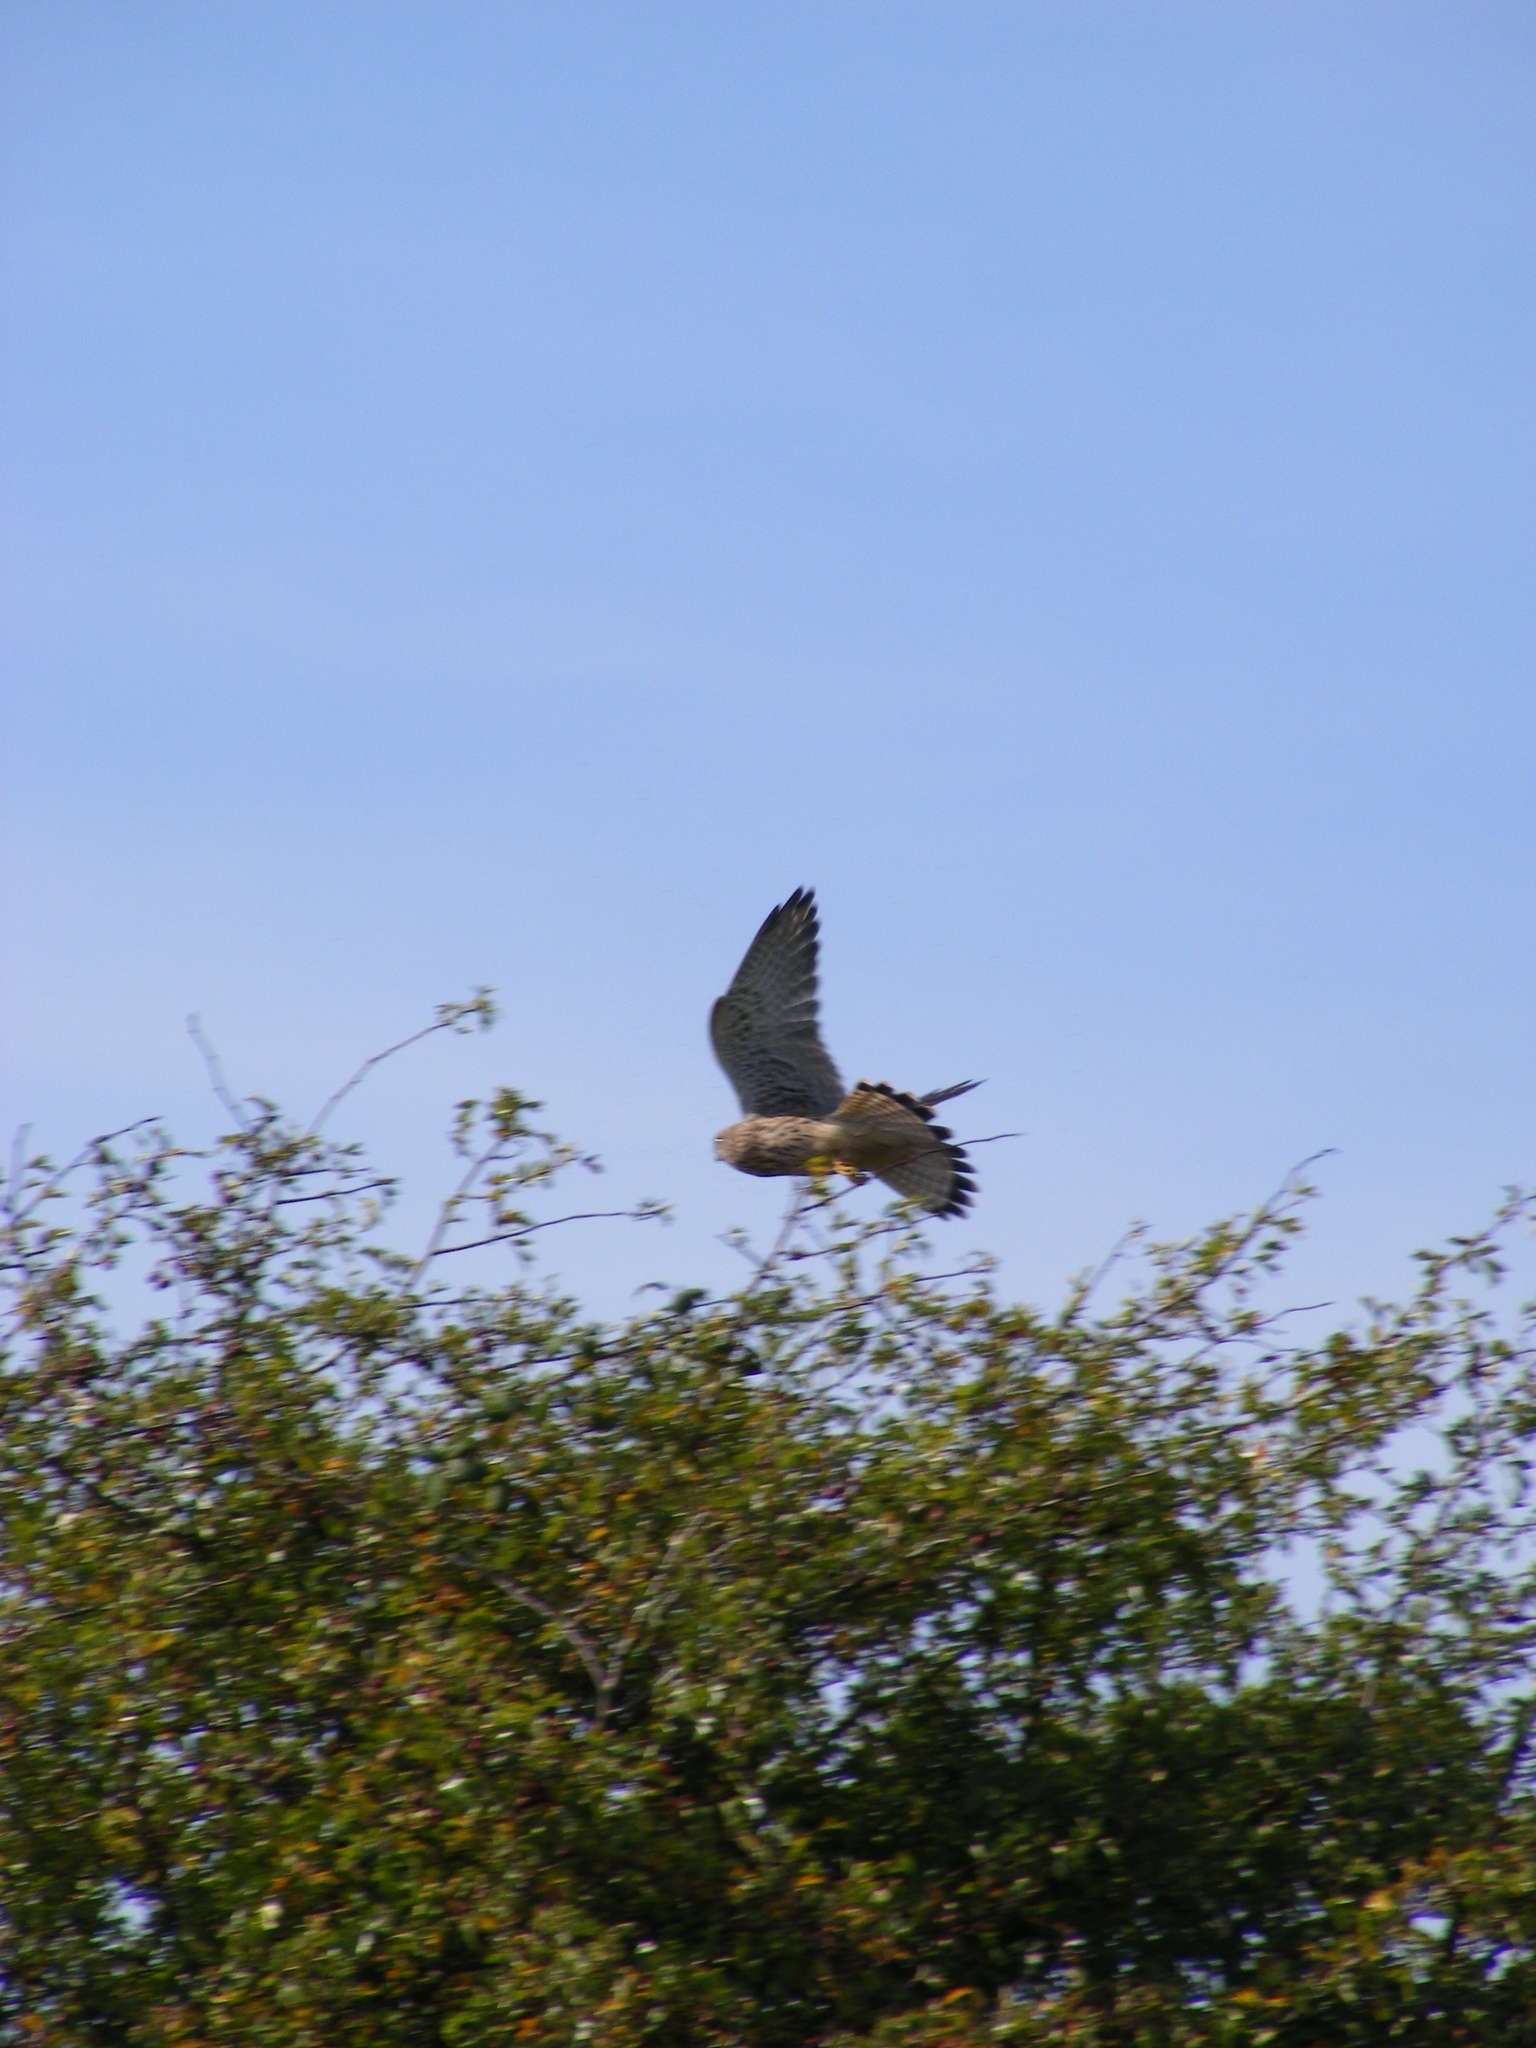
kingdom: Animalia
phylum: Chordata
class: Aves
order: Falconiformes
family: Falconidae
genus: Falco
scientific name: Falco tinnunculus
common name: Common kestrel
